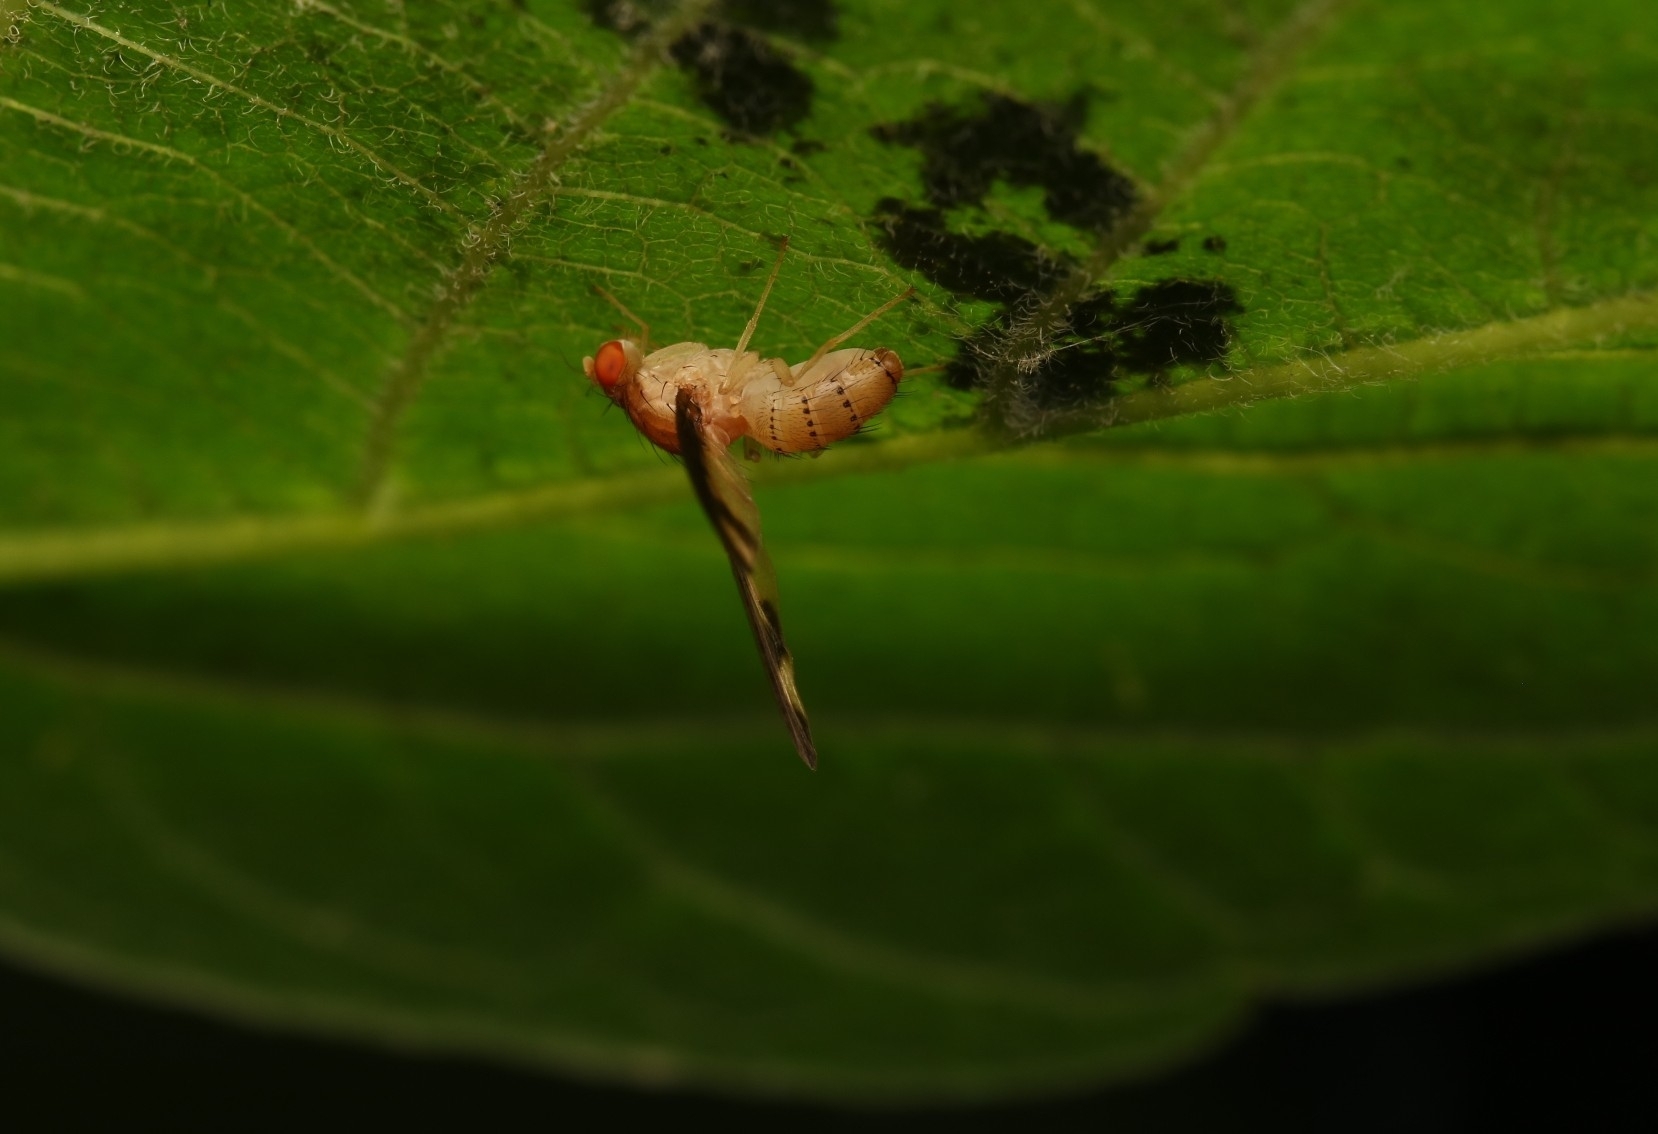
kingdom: Animalia
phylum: Arthropoda
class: Insecta
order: Diptera
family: Pallopteridae
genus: Toxonevra
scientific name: Toxonevra superba
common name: Antlered flutter fly
